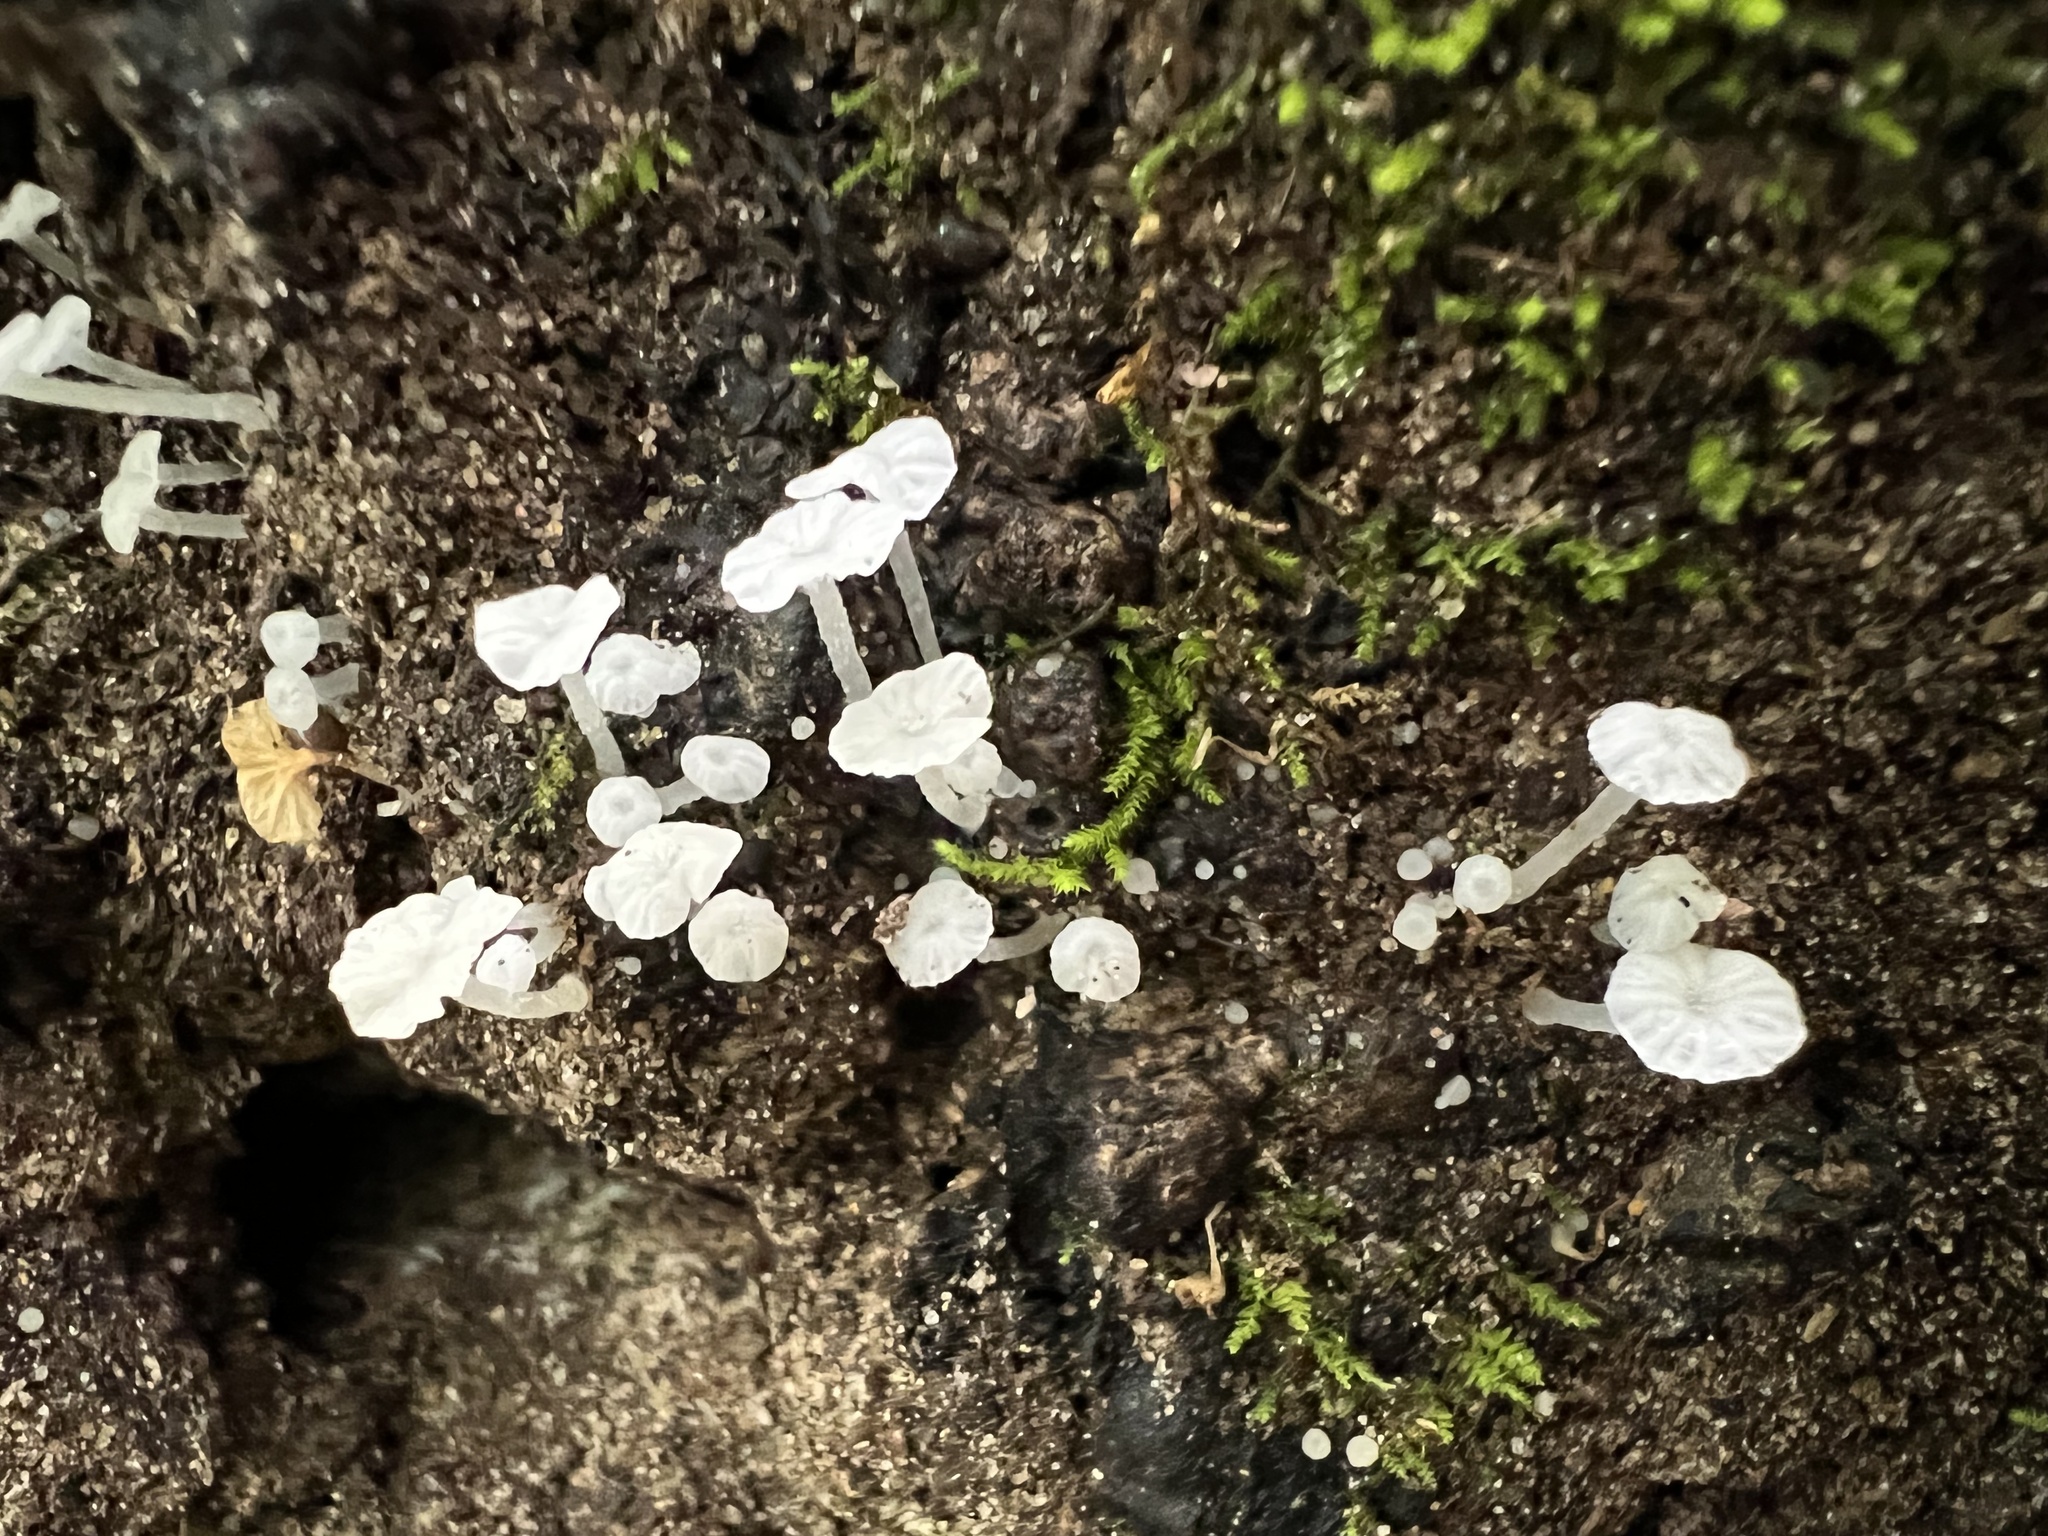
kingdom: Fungi
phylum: Basidiomycota
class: Agaricomycetes
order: Agaricales
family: Tricholomataceae
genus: Delicatula
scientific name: Delicatula integrella
